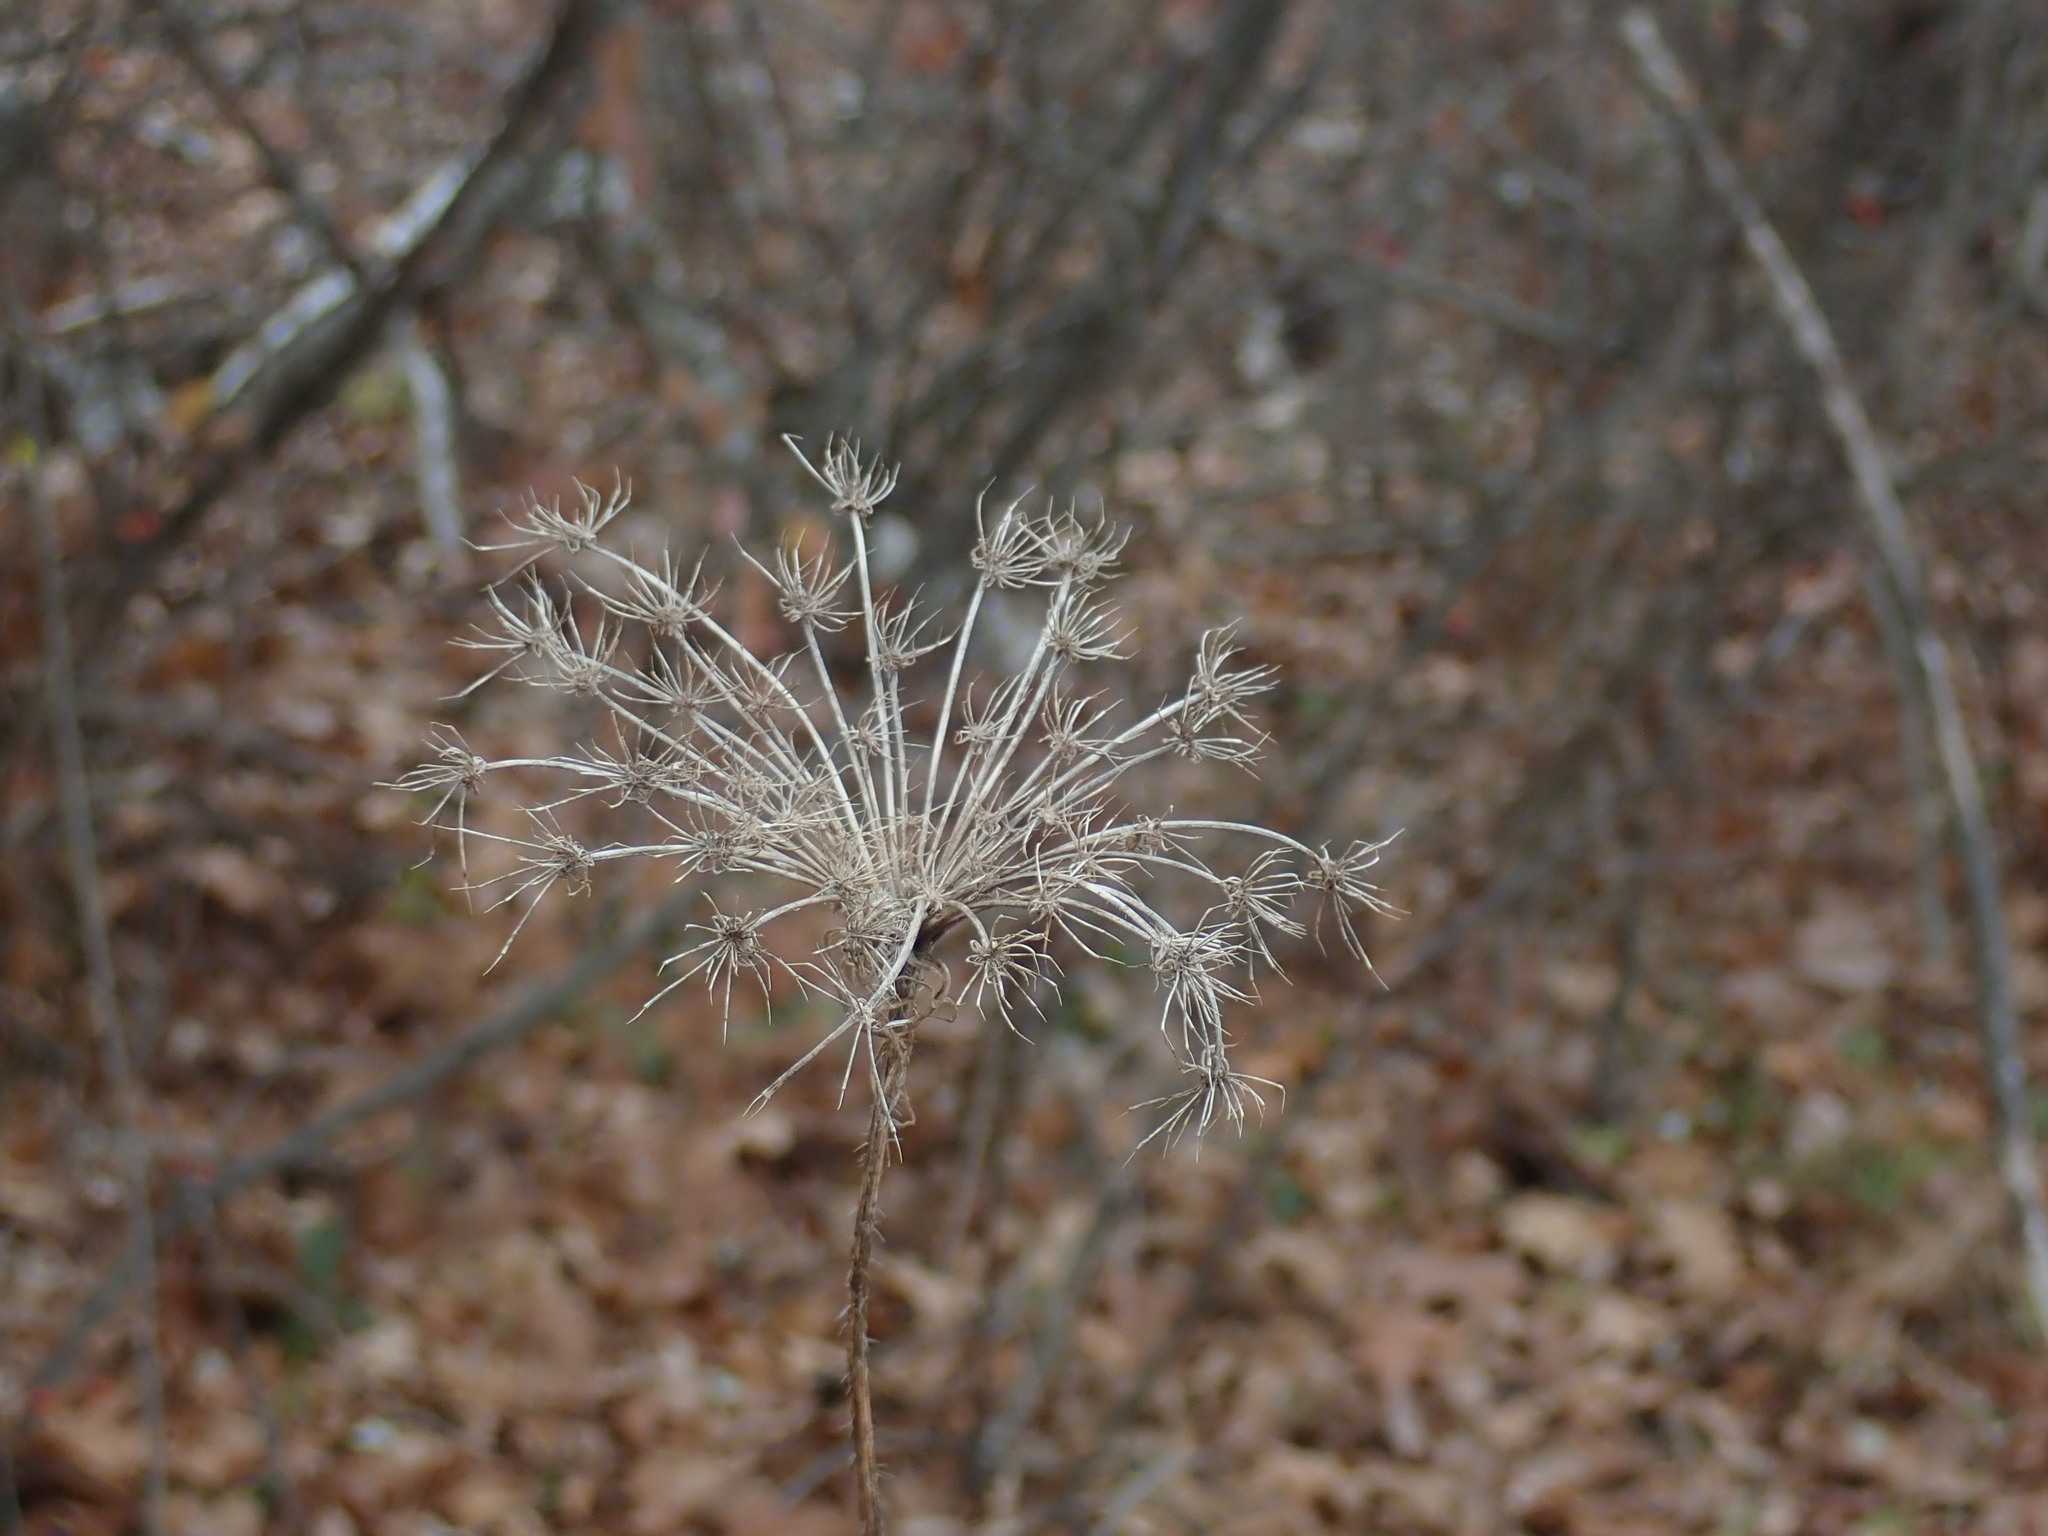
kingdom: Plantae
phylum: Tracheophyta
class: Magnoliopsida
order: Apiales
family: Apiaceae
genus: Daucus
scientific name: Daucus carota
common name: Wild carrot
